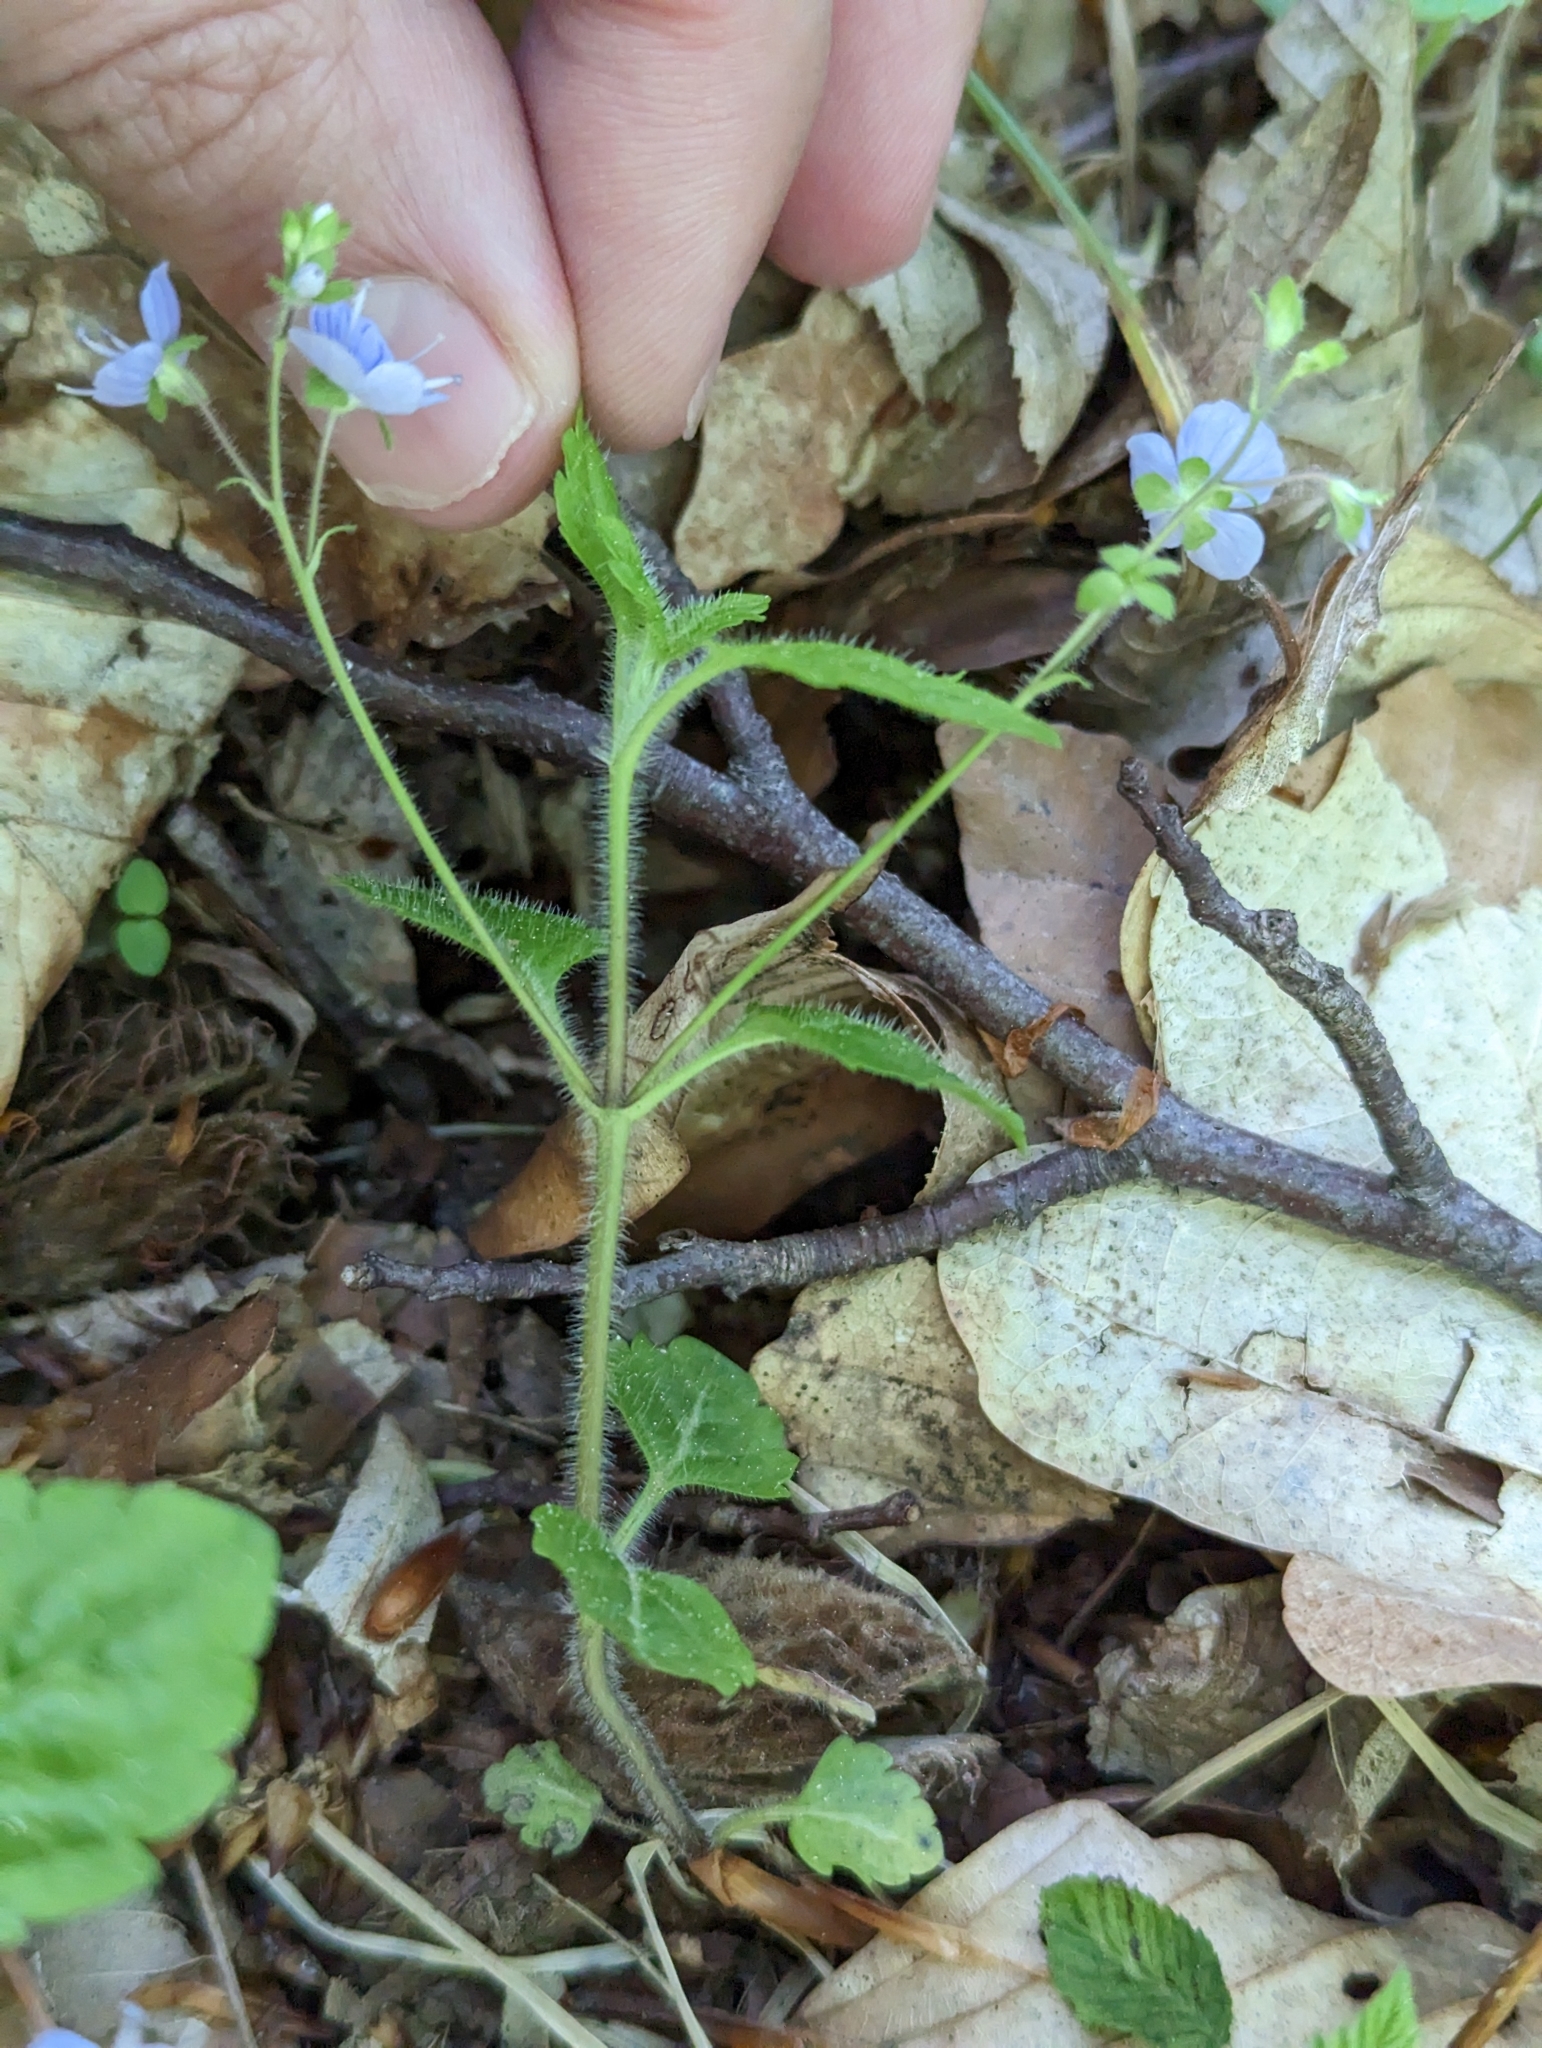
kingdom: Plantae
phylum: Tracheophyta
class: Magnoliopsida
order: Lamiales
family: Plantaginaceae
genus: Veronica
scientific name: Veronica montana
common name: Wood speedwell
